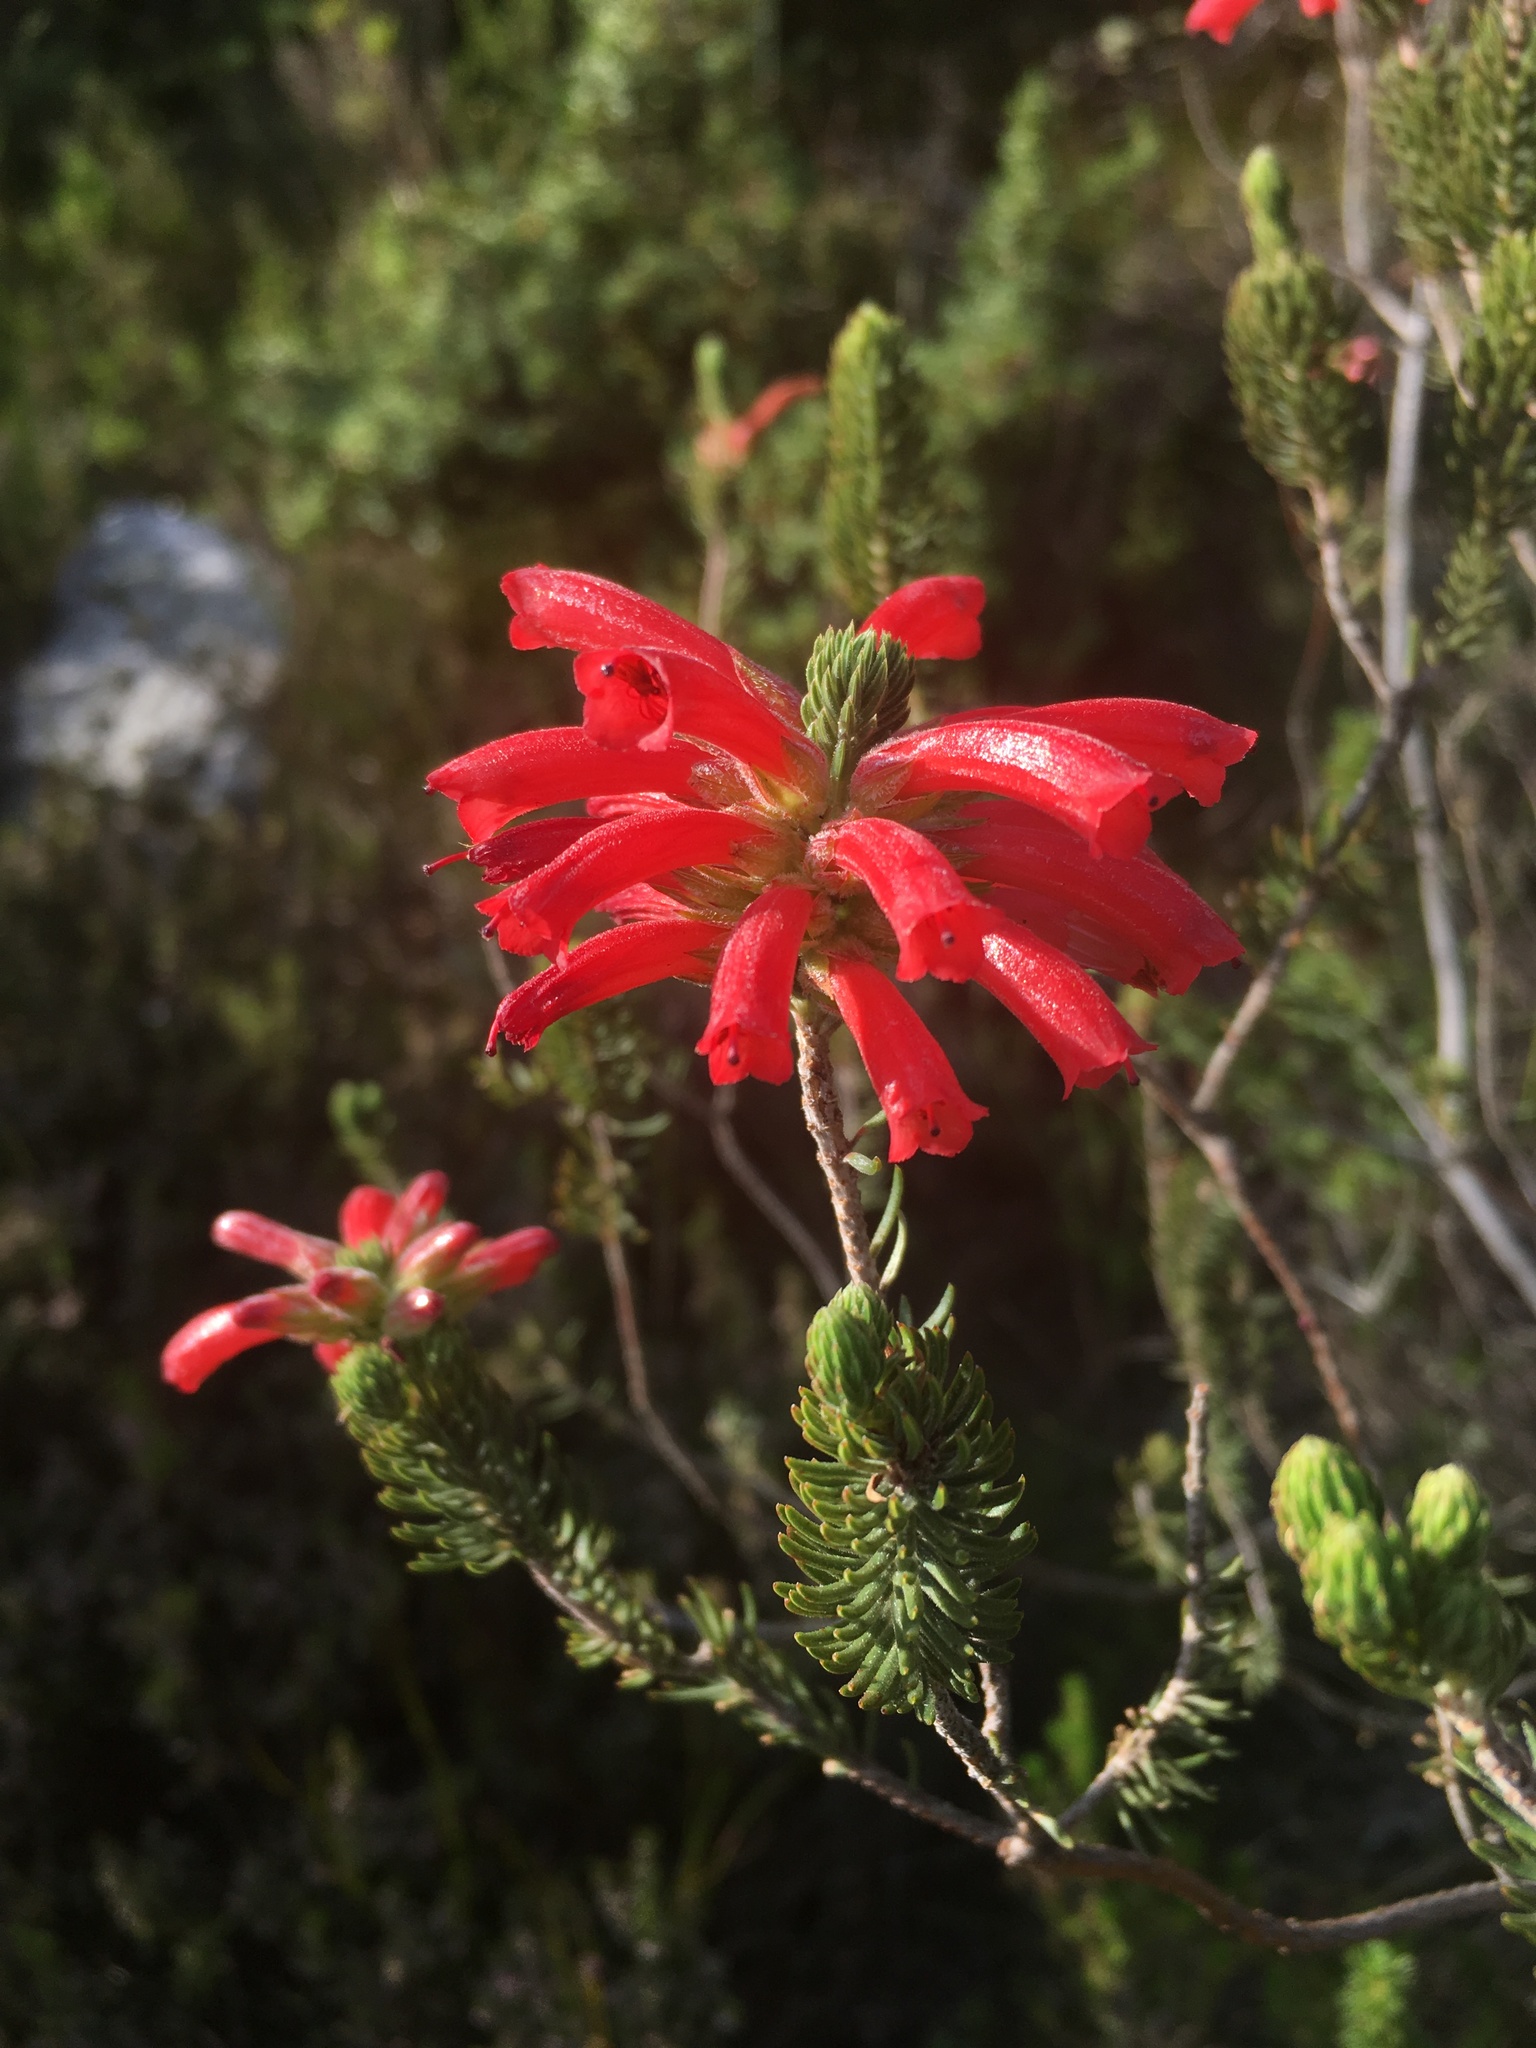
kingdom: Plantae
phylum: Tracheophyta
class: Magnoliopsida
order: Ericales
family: Ericaceae
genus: Erica
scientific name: Erica abietina
